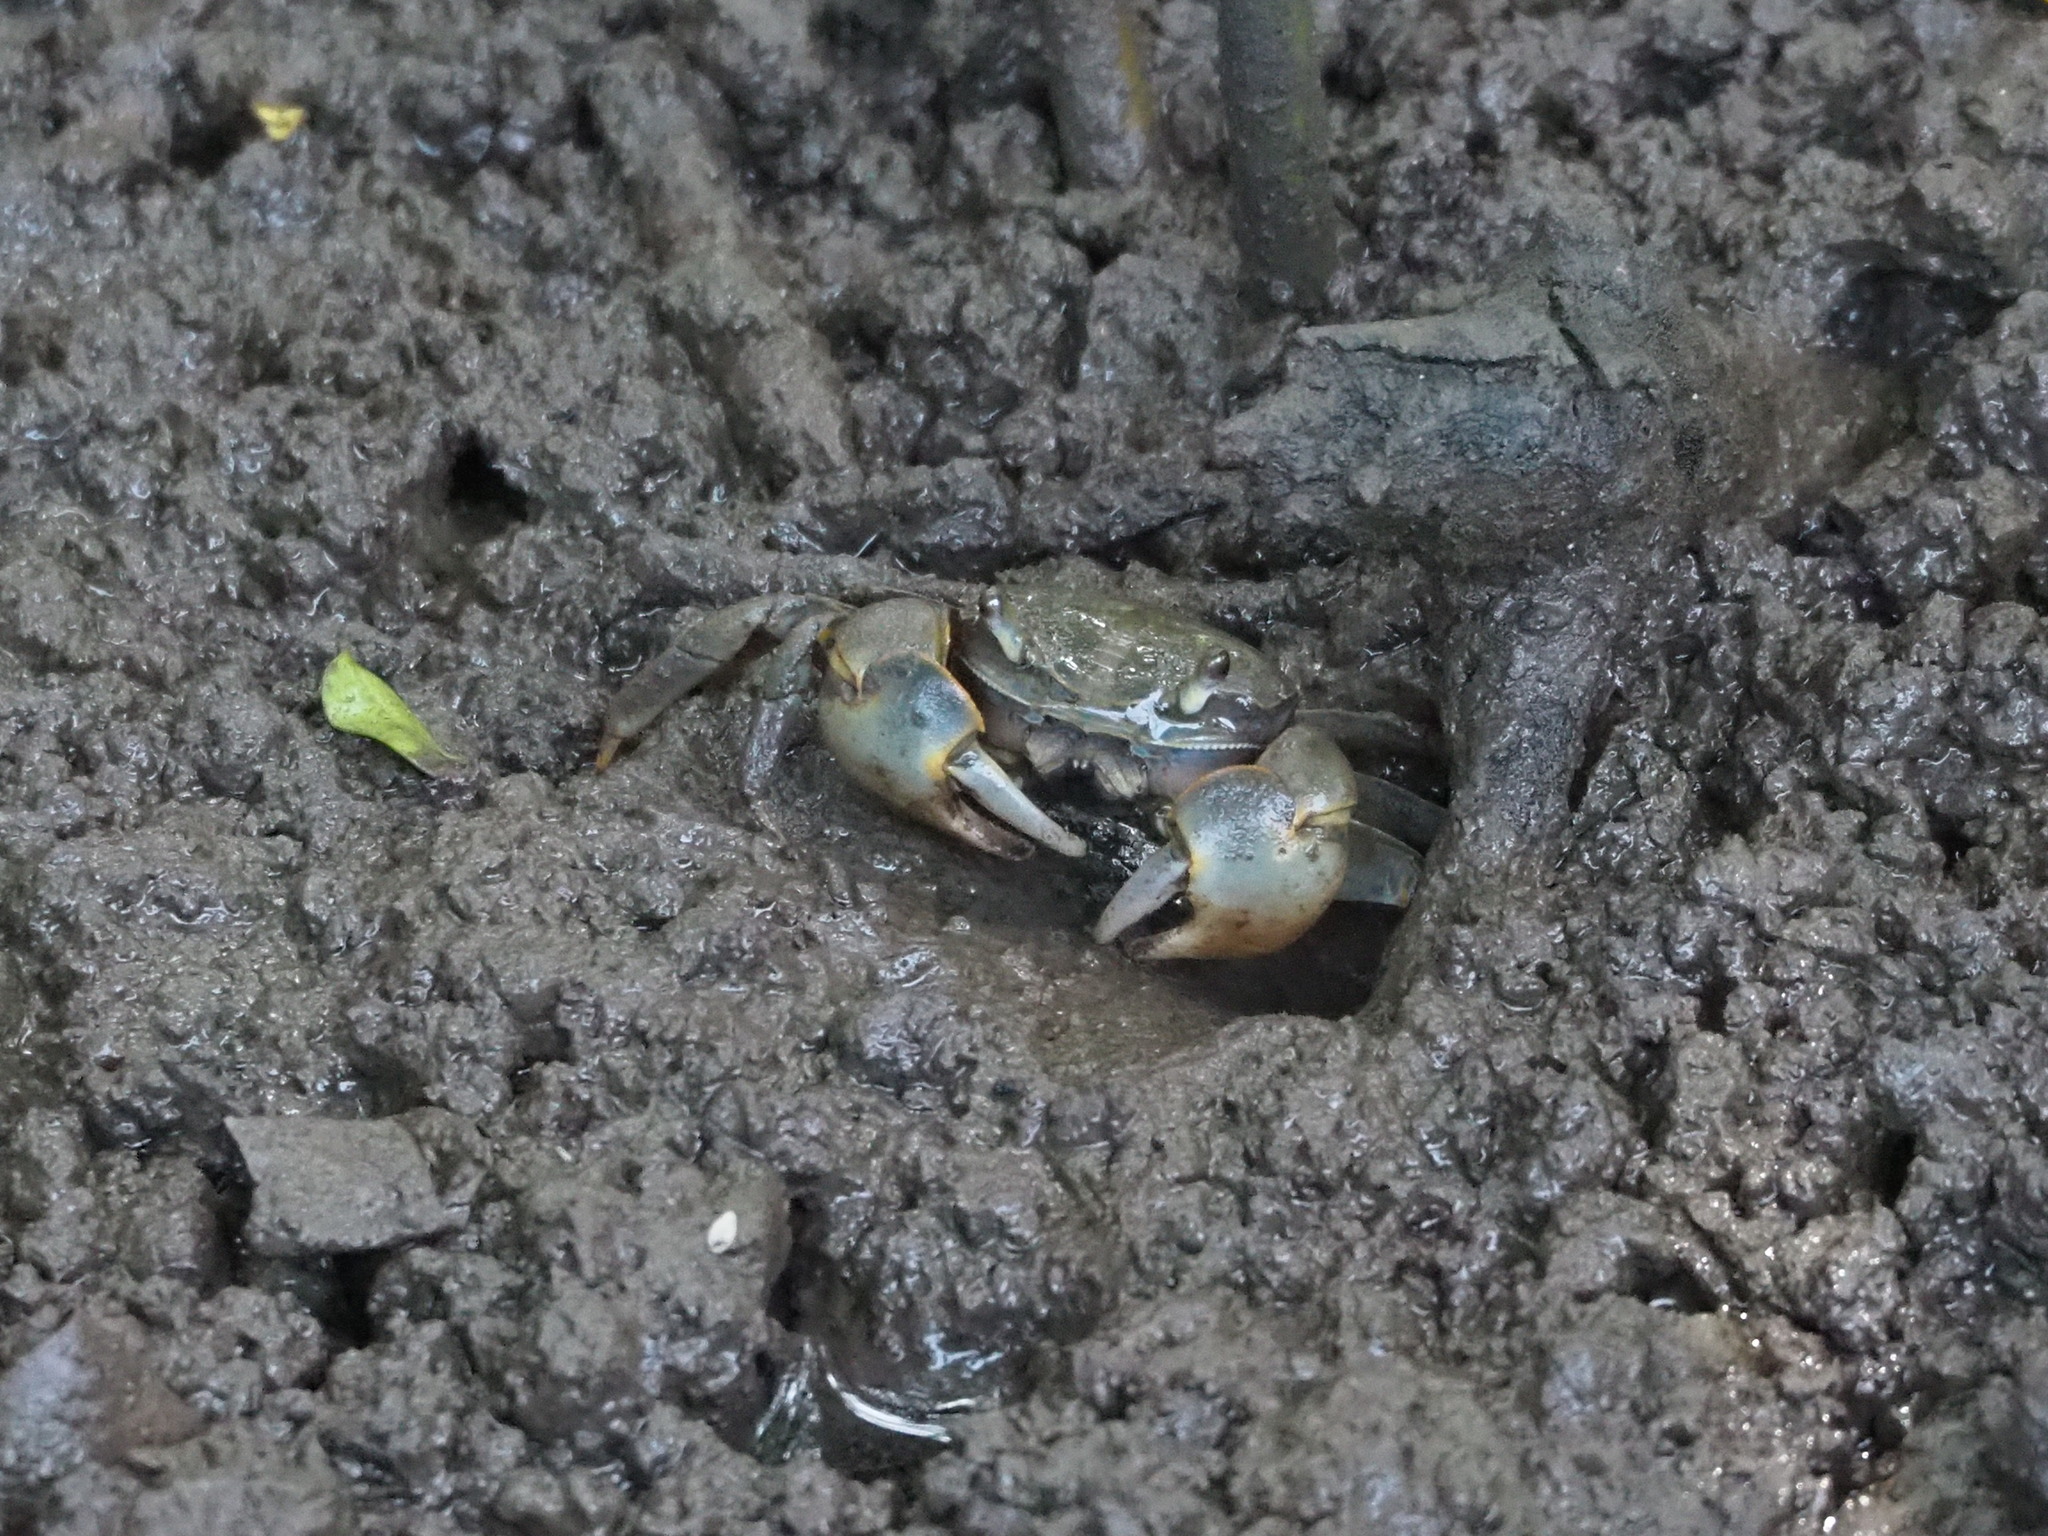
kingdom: Animalia
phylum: Arthropoda
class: Malacostraca
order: Decapoda
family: Varunidae
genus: Helice
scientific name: Helice formosensis
